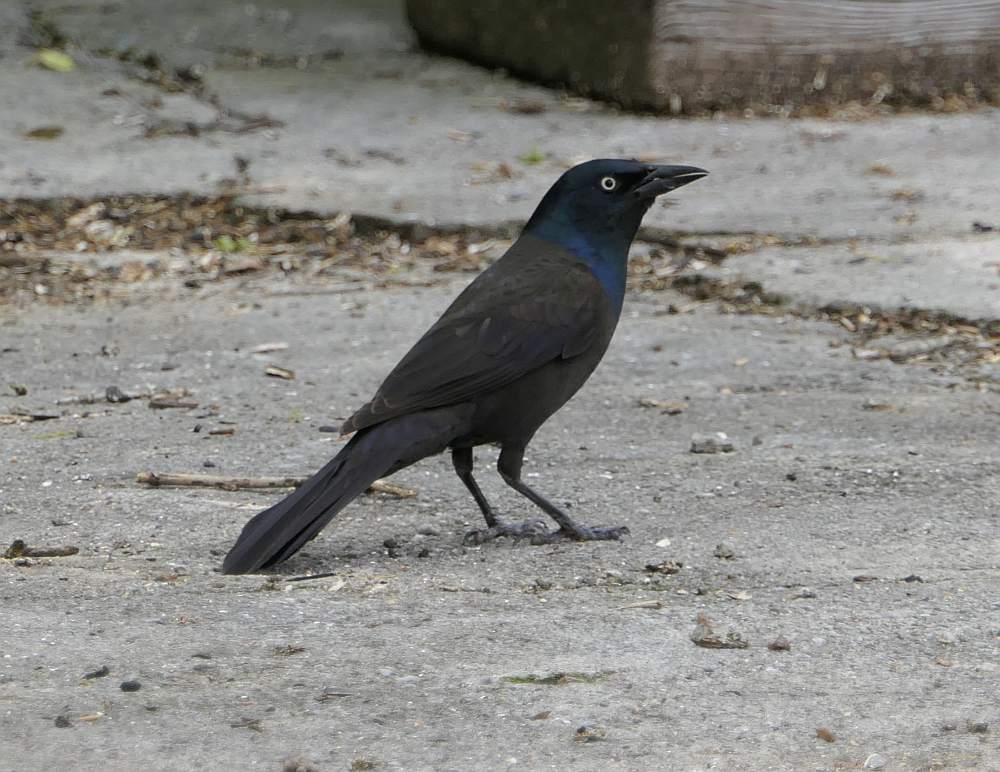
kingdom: Animalia
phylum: Chordata
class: Aves
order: Passeriformes
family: Icteridae
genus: Quiscalus
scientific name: Quiscalus quiscula
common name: Common grackle
